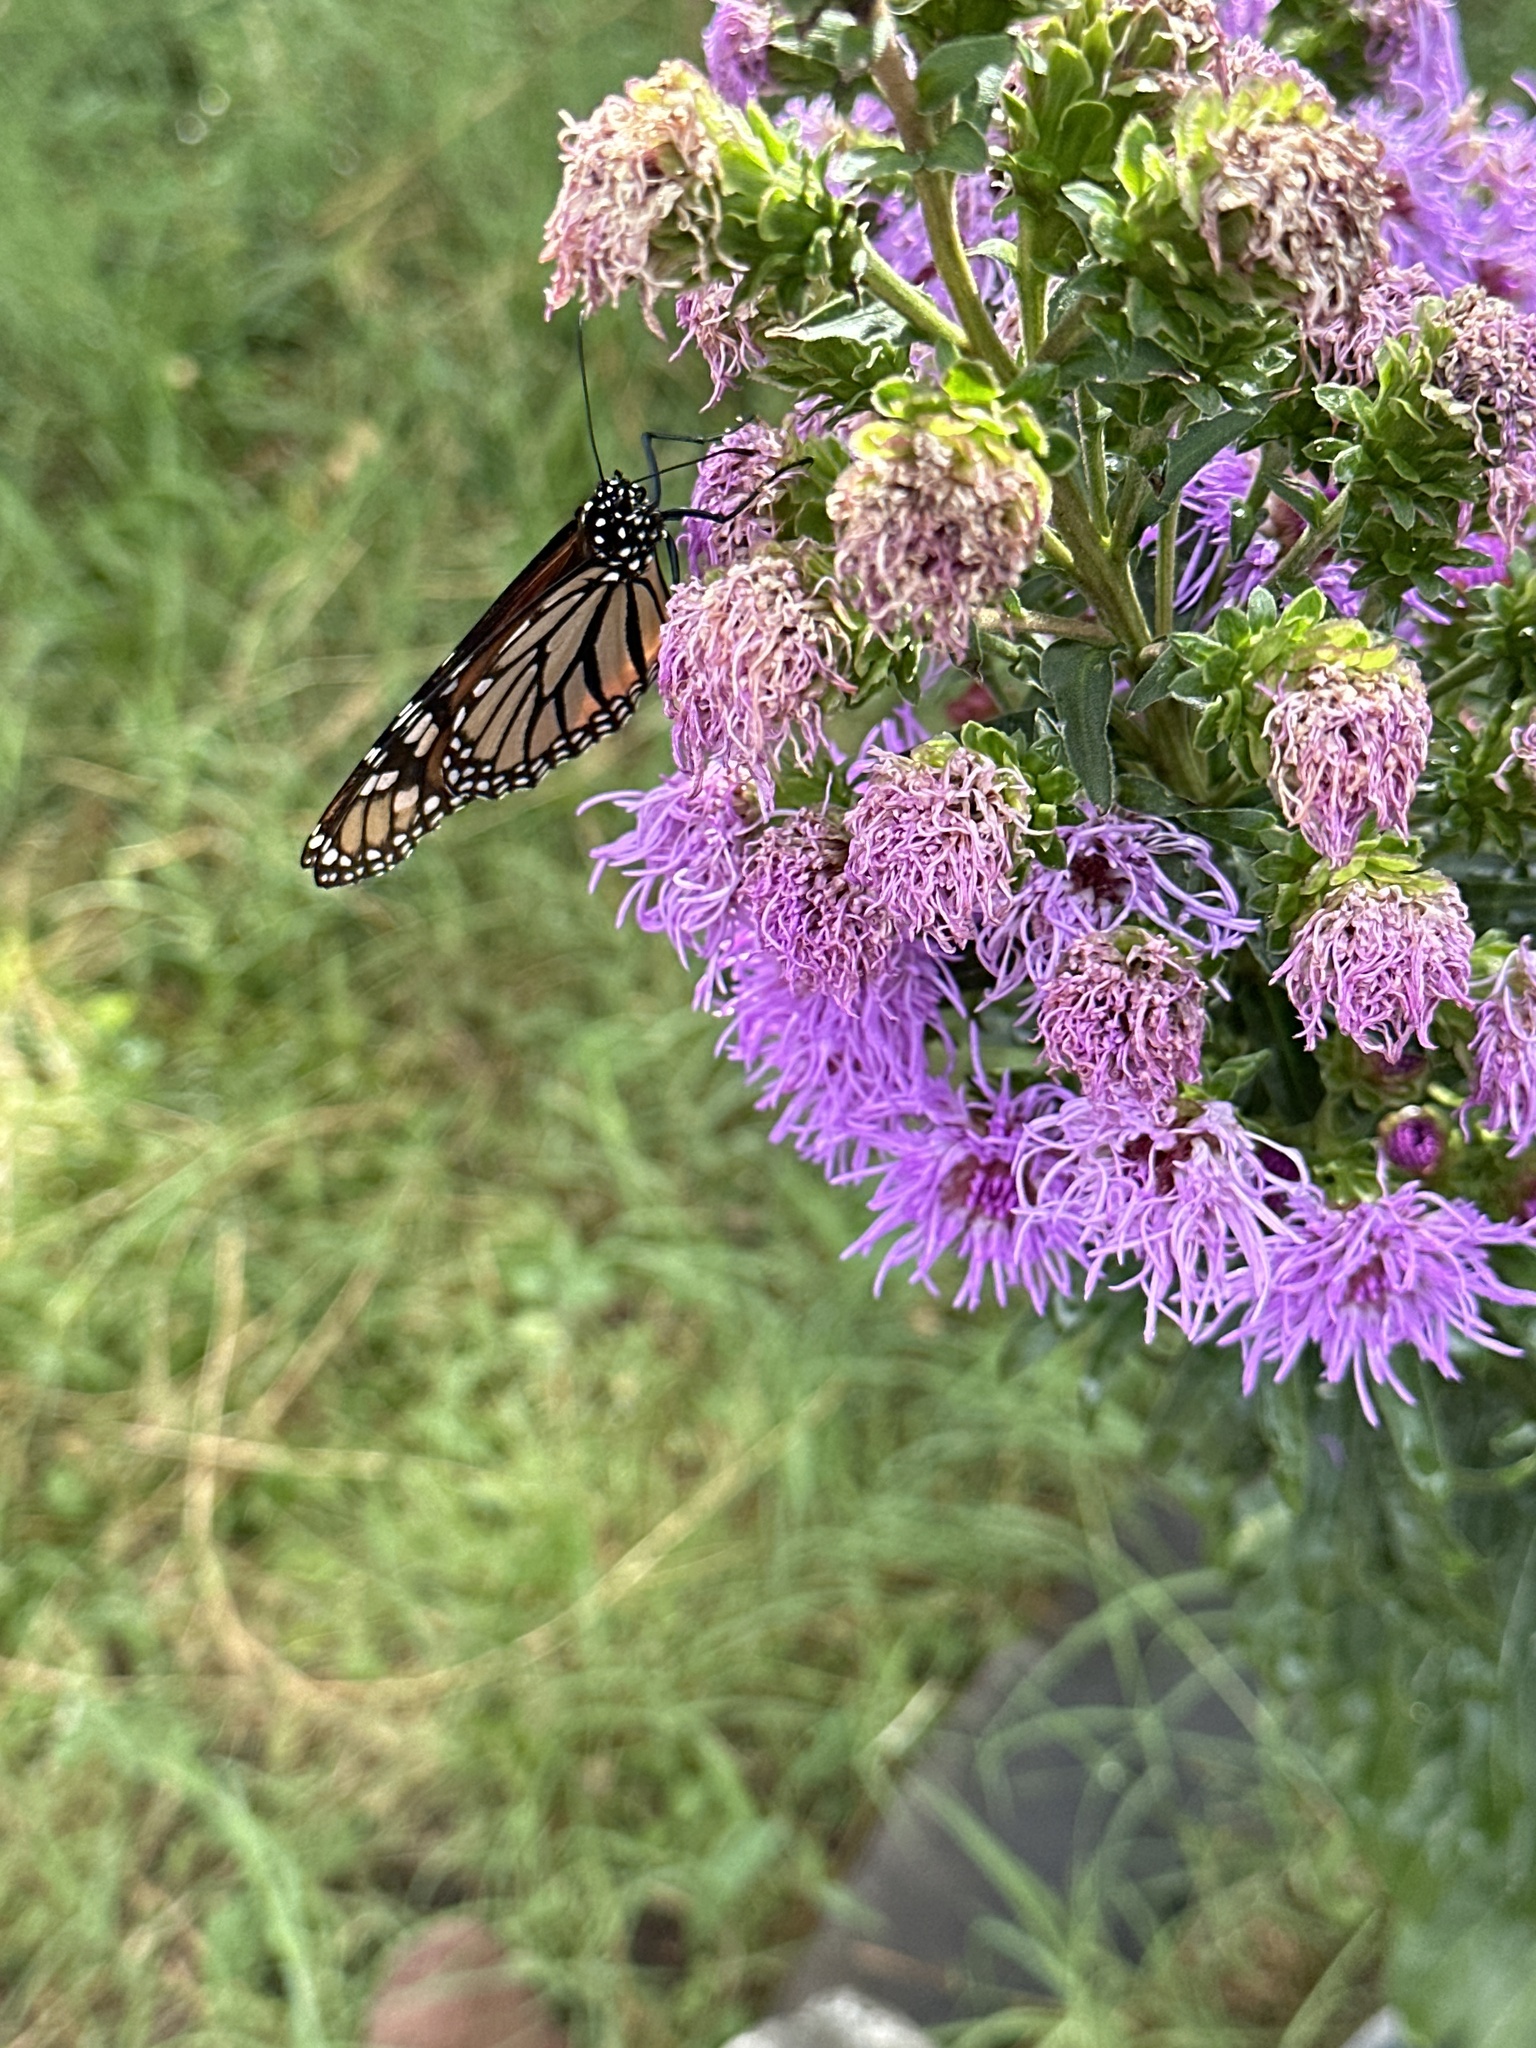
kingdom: Animalia
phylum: Arthropoda
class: Insecta
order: Lepidoptera
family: Nymphalidae
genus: Danaus
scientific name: Danaus plexippus
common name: Monarch
